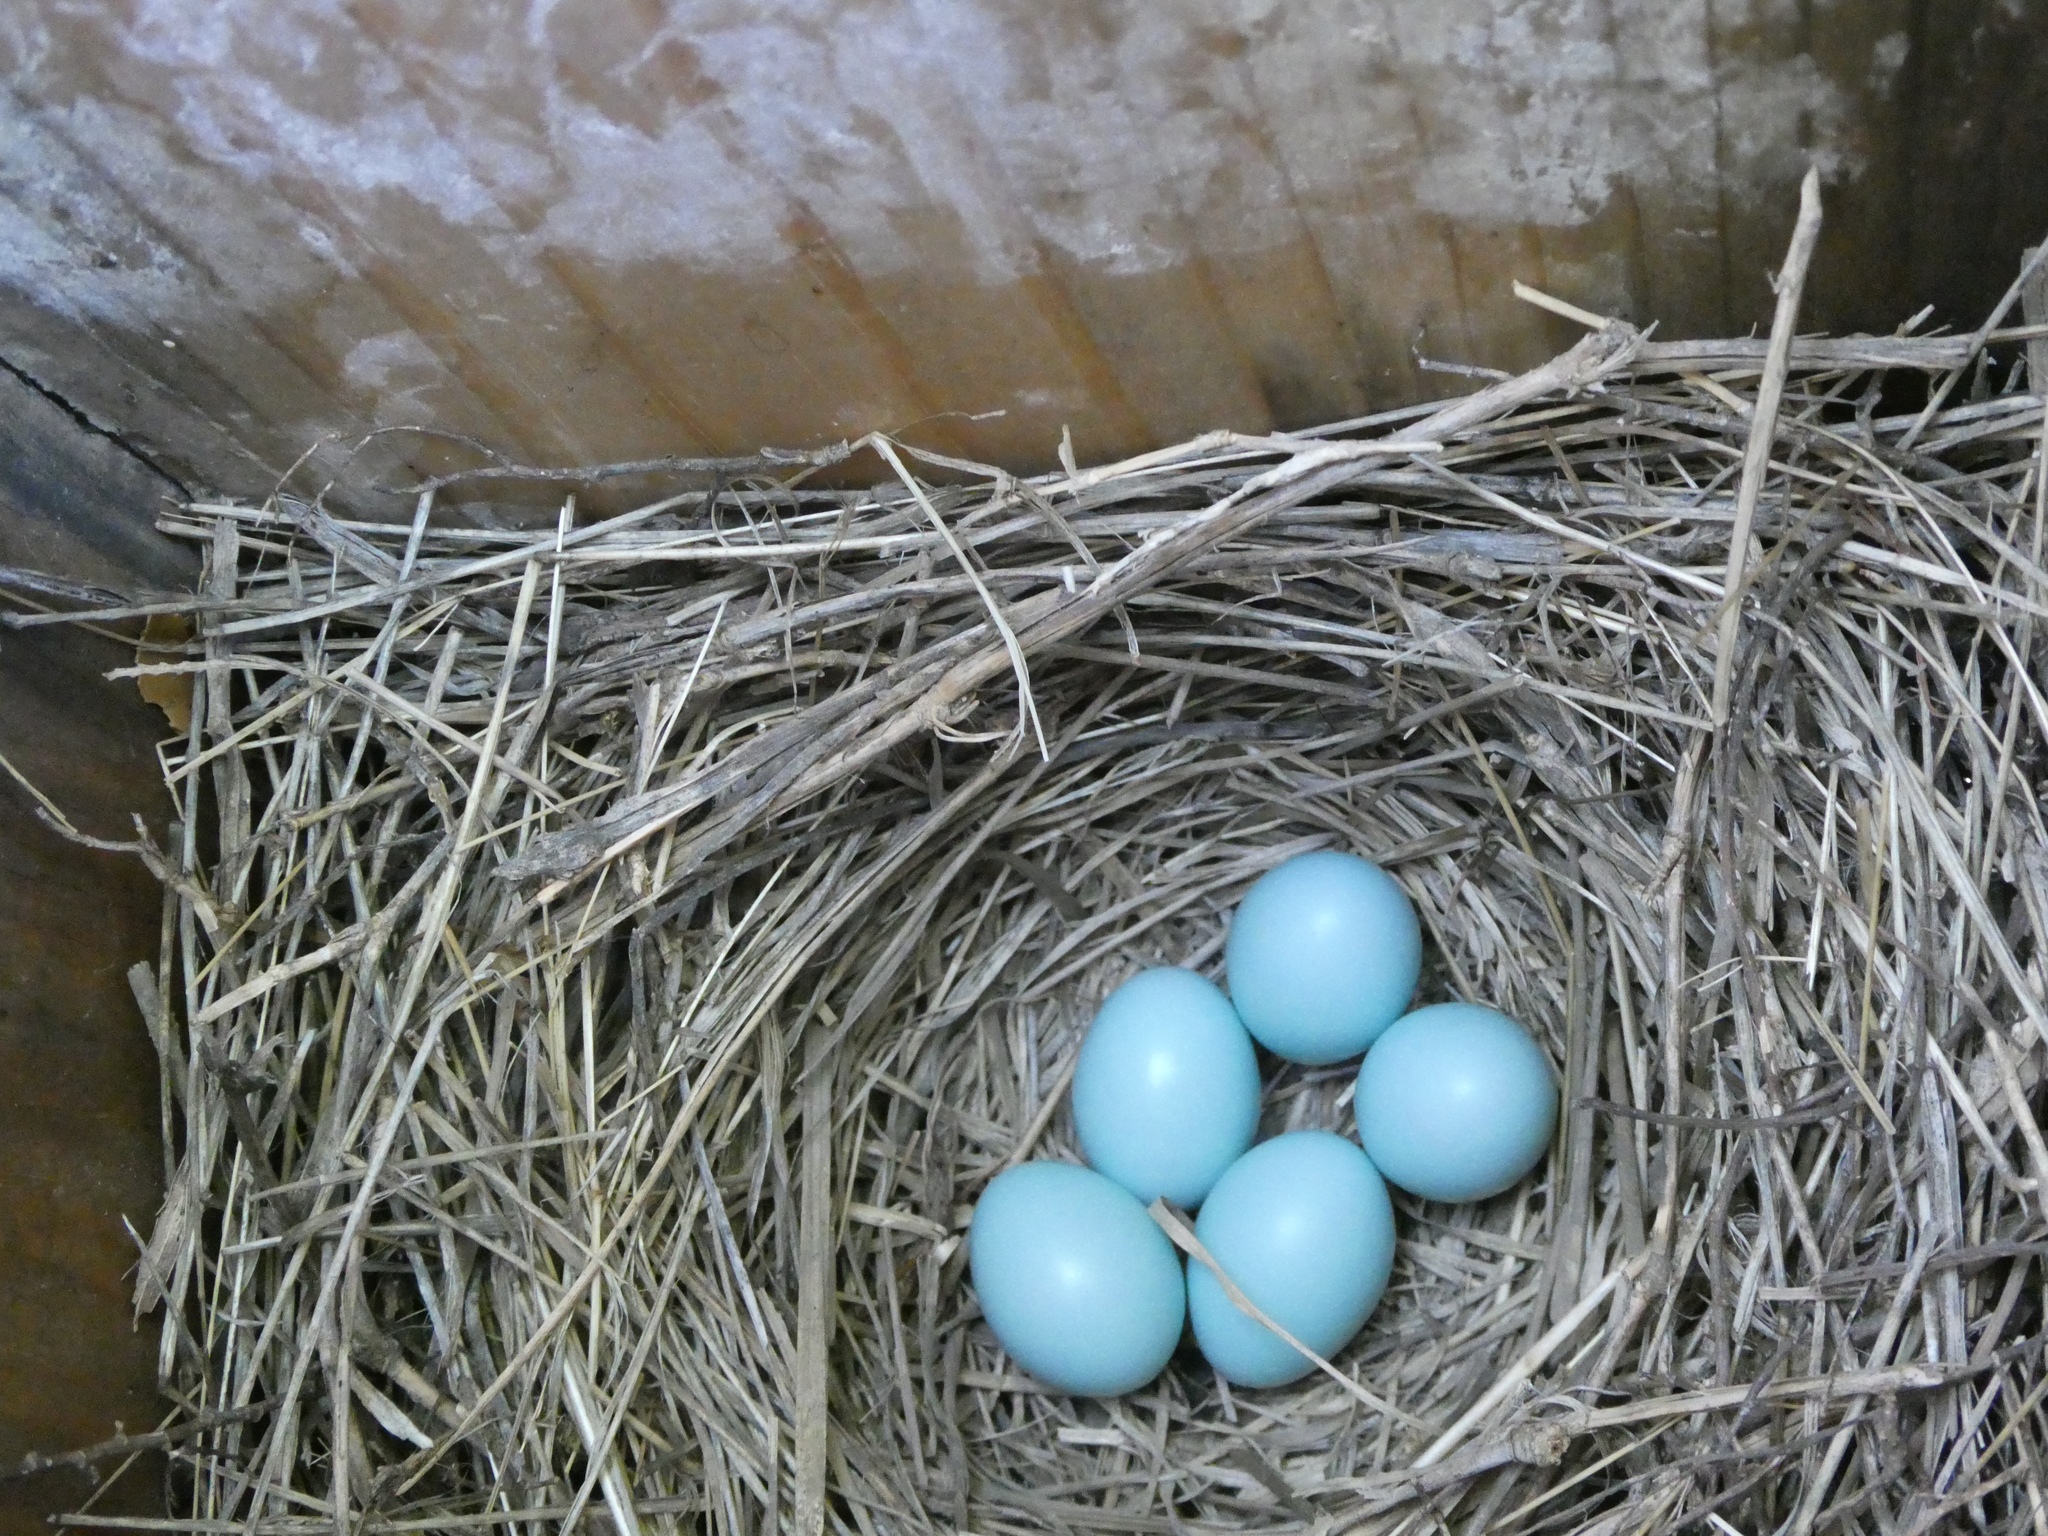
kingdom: Animalia
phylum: Chordata
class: Aves
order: Passeriformes
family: Turdidae
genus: Sialia
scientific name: Sialia sialis
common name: Eastern bluebird
